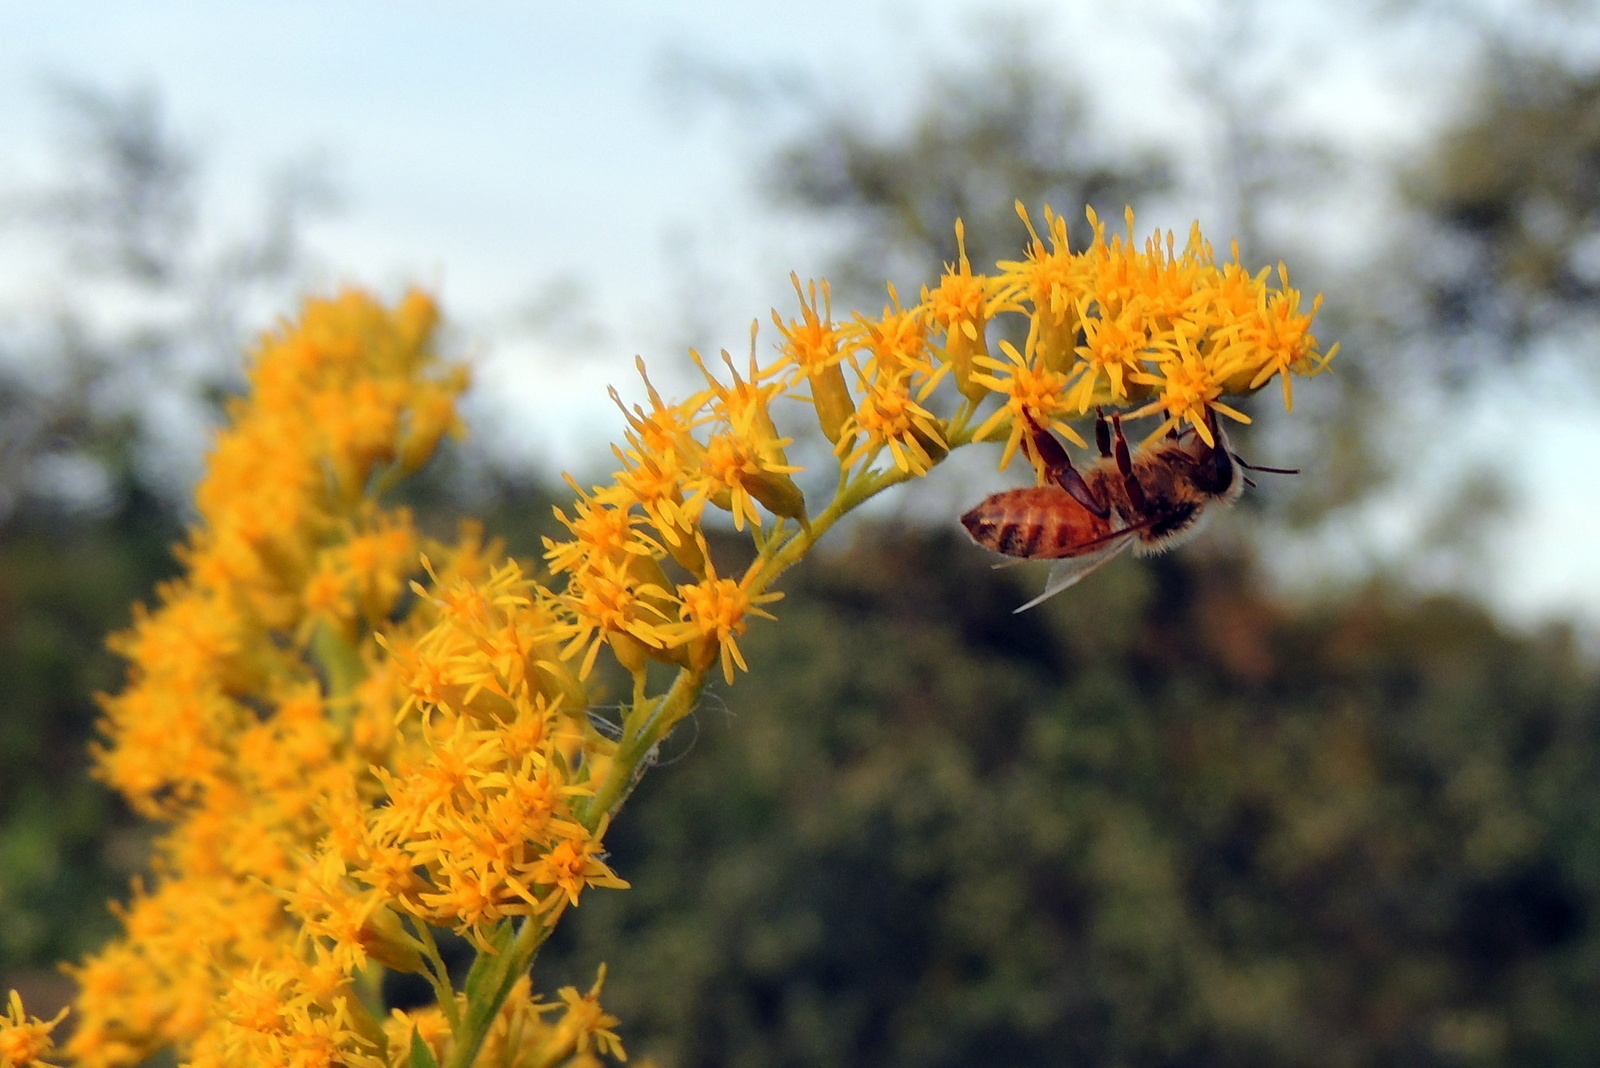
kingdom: Animalia
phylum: Arthropoda
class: Insecta
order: Hymenoptera
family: Apidae
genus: Apis
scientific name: Apis mellifera
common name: Honey bee
